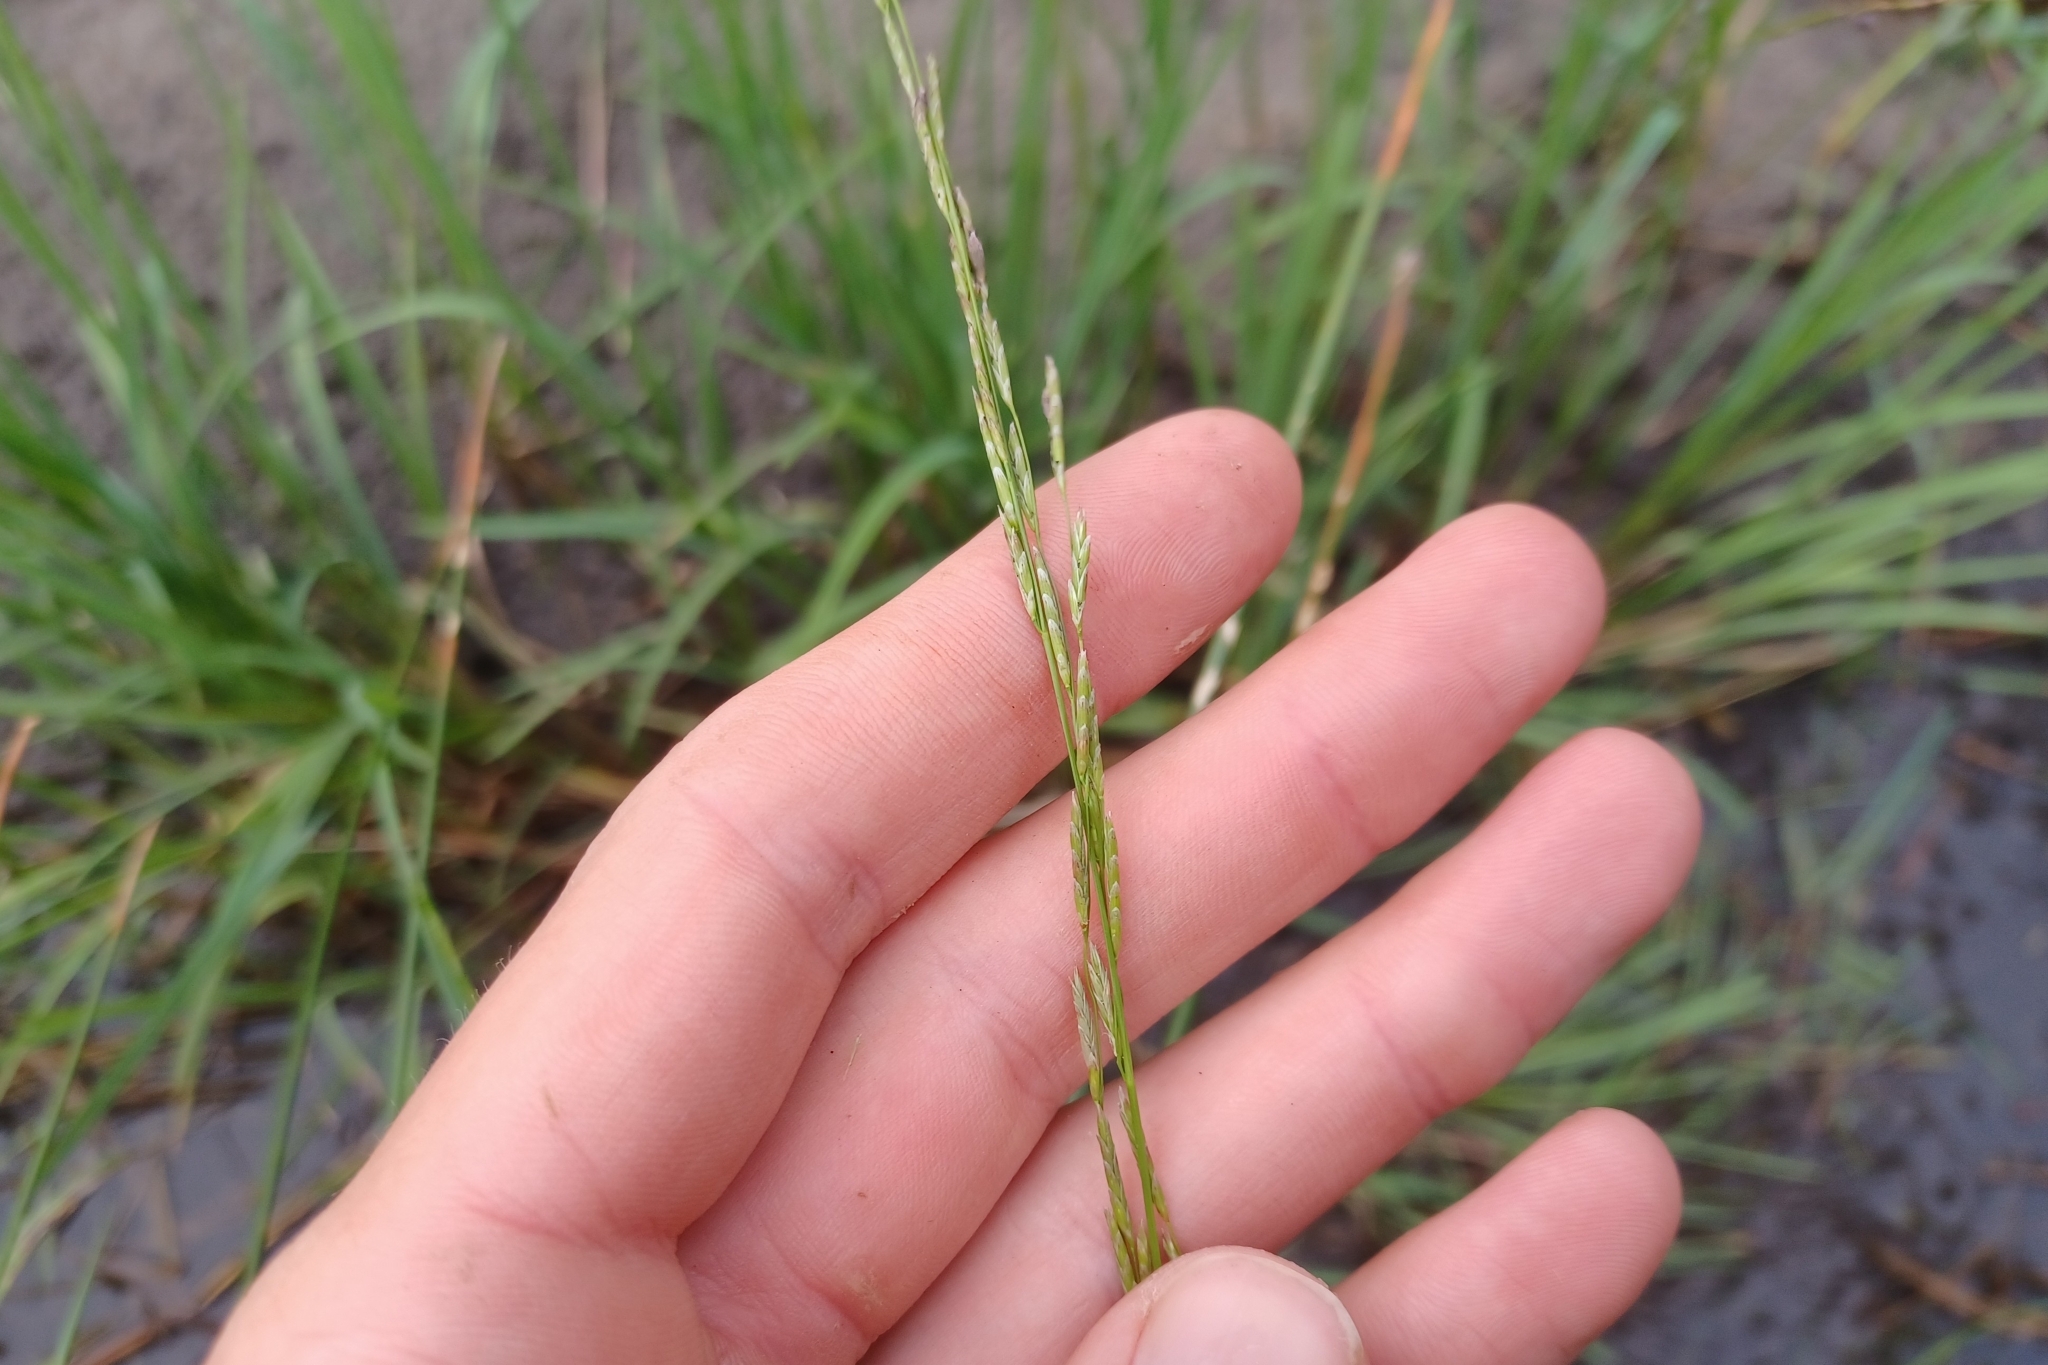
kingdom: Plantae
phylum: Tracheophyta
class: Liliopsida
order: Poales
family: Poaceae
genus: Glyceria
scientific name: Glyceria borealis
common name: Boreal glyceria
